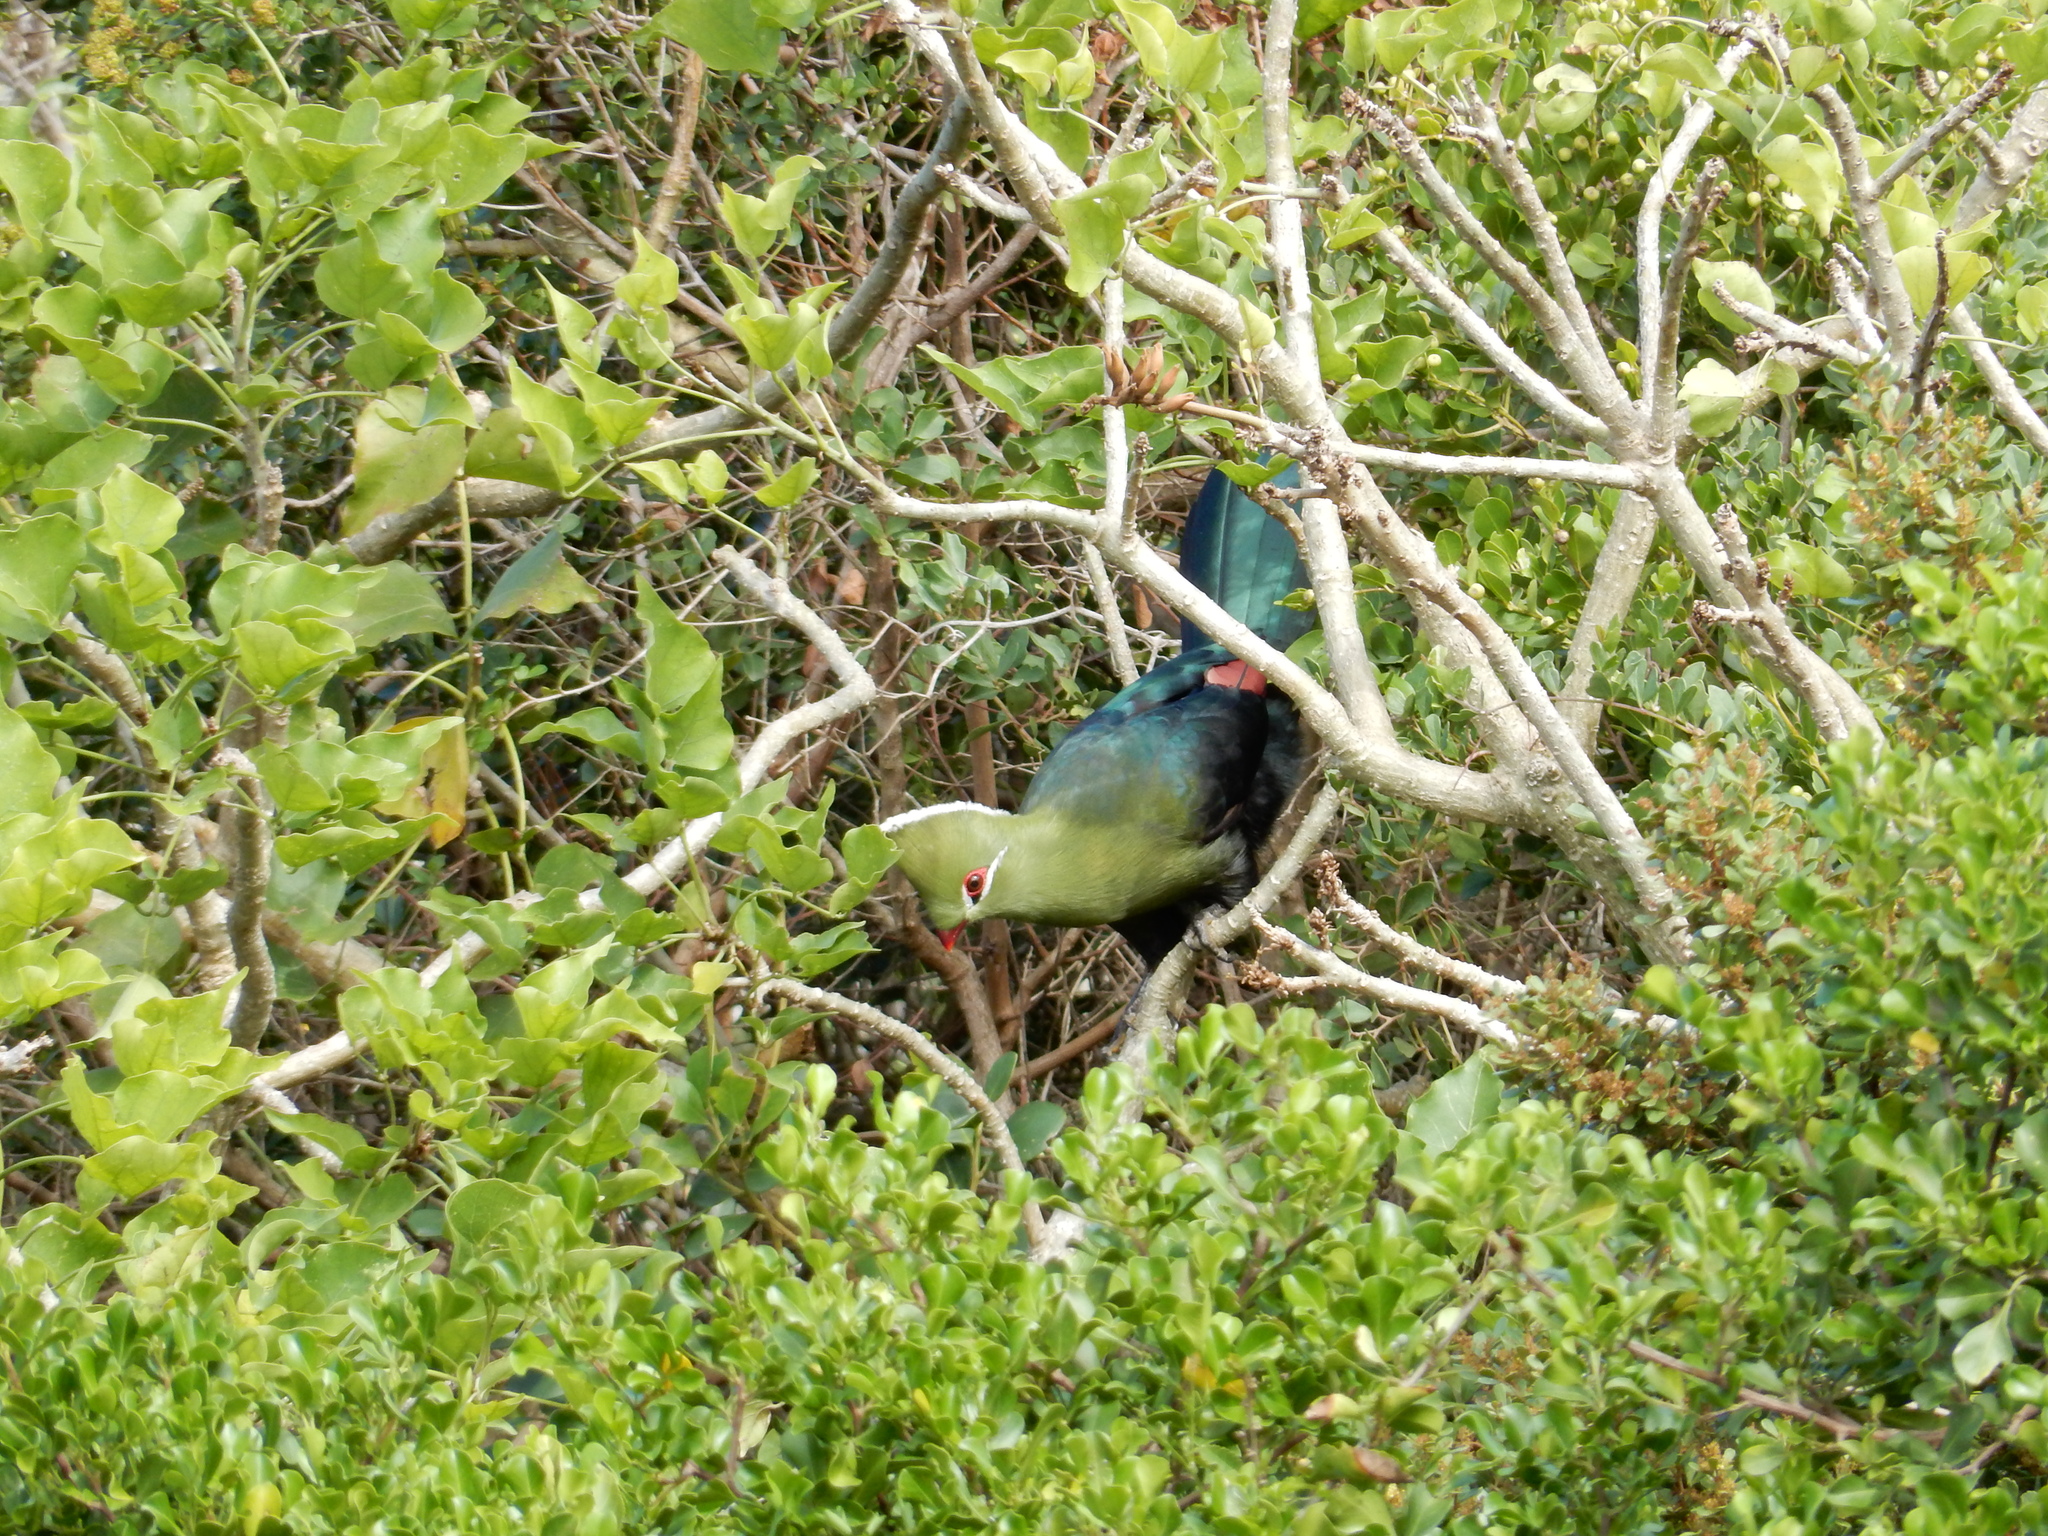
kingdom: Animalia
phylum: Chordata
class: Aves
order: Musophagiformes
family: Musophagidae
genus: Tauraco
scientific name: Tauraco corythaix
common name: Knysna turaco
